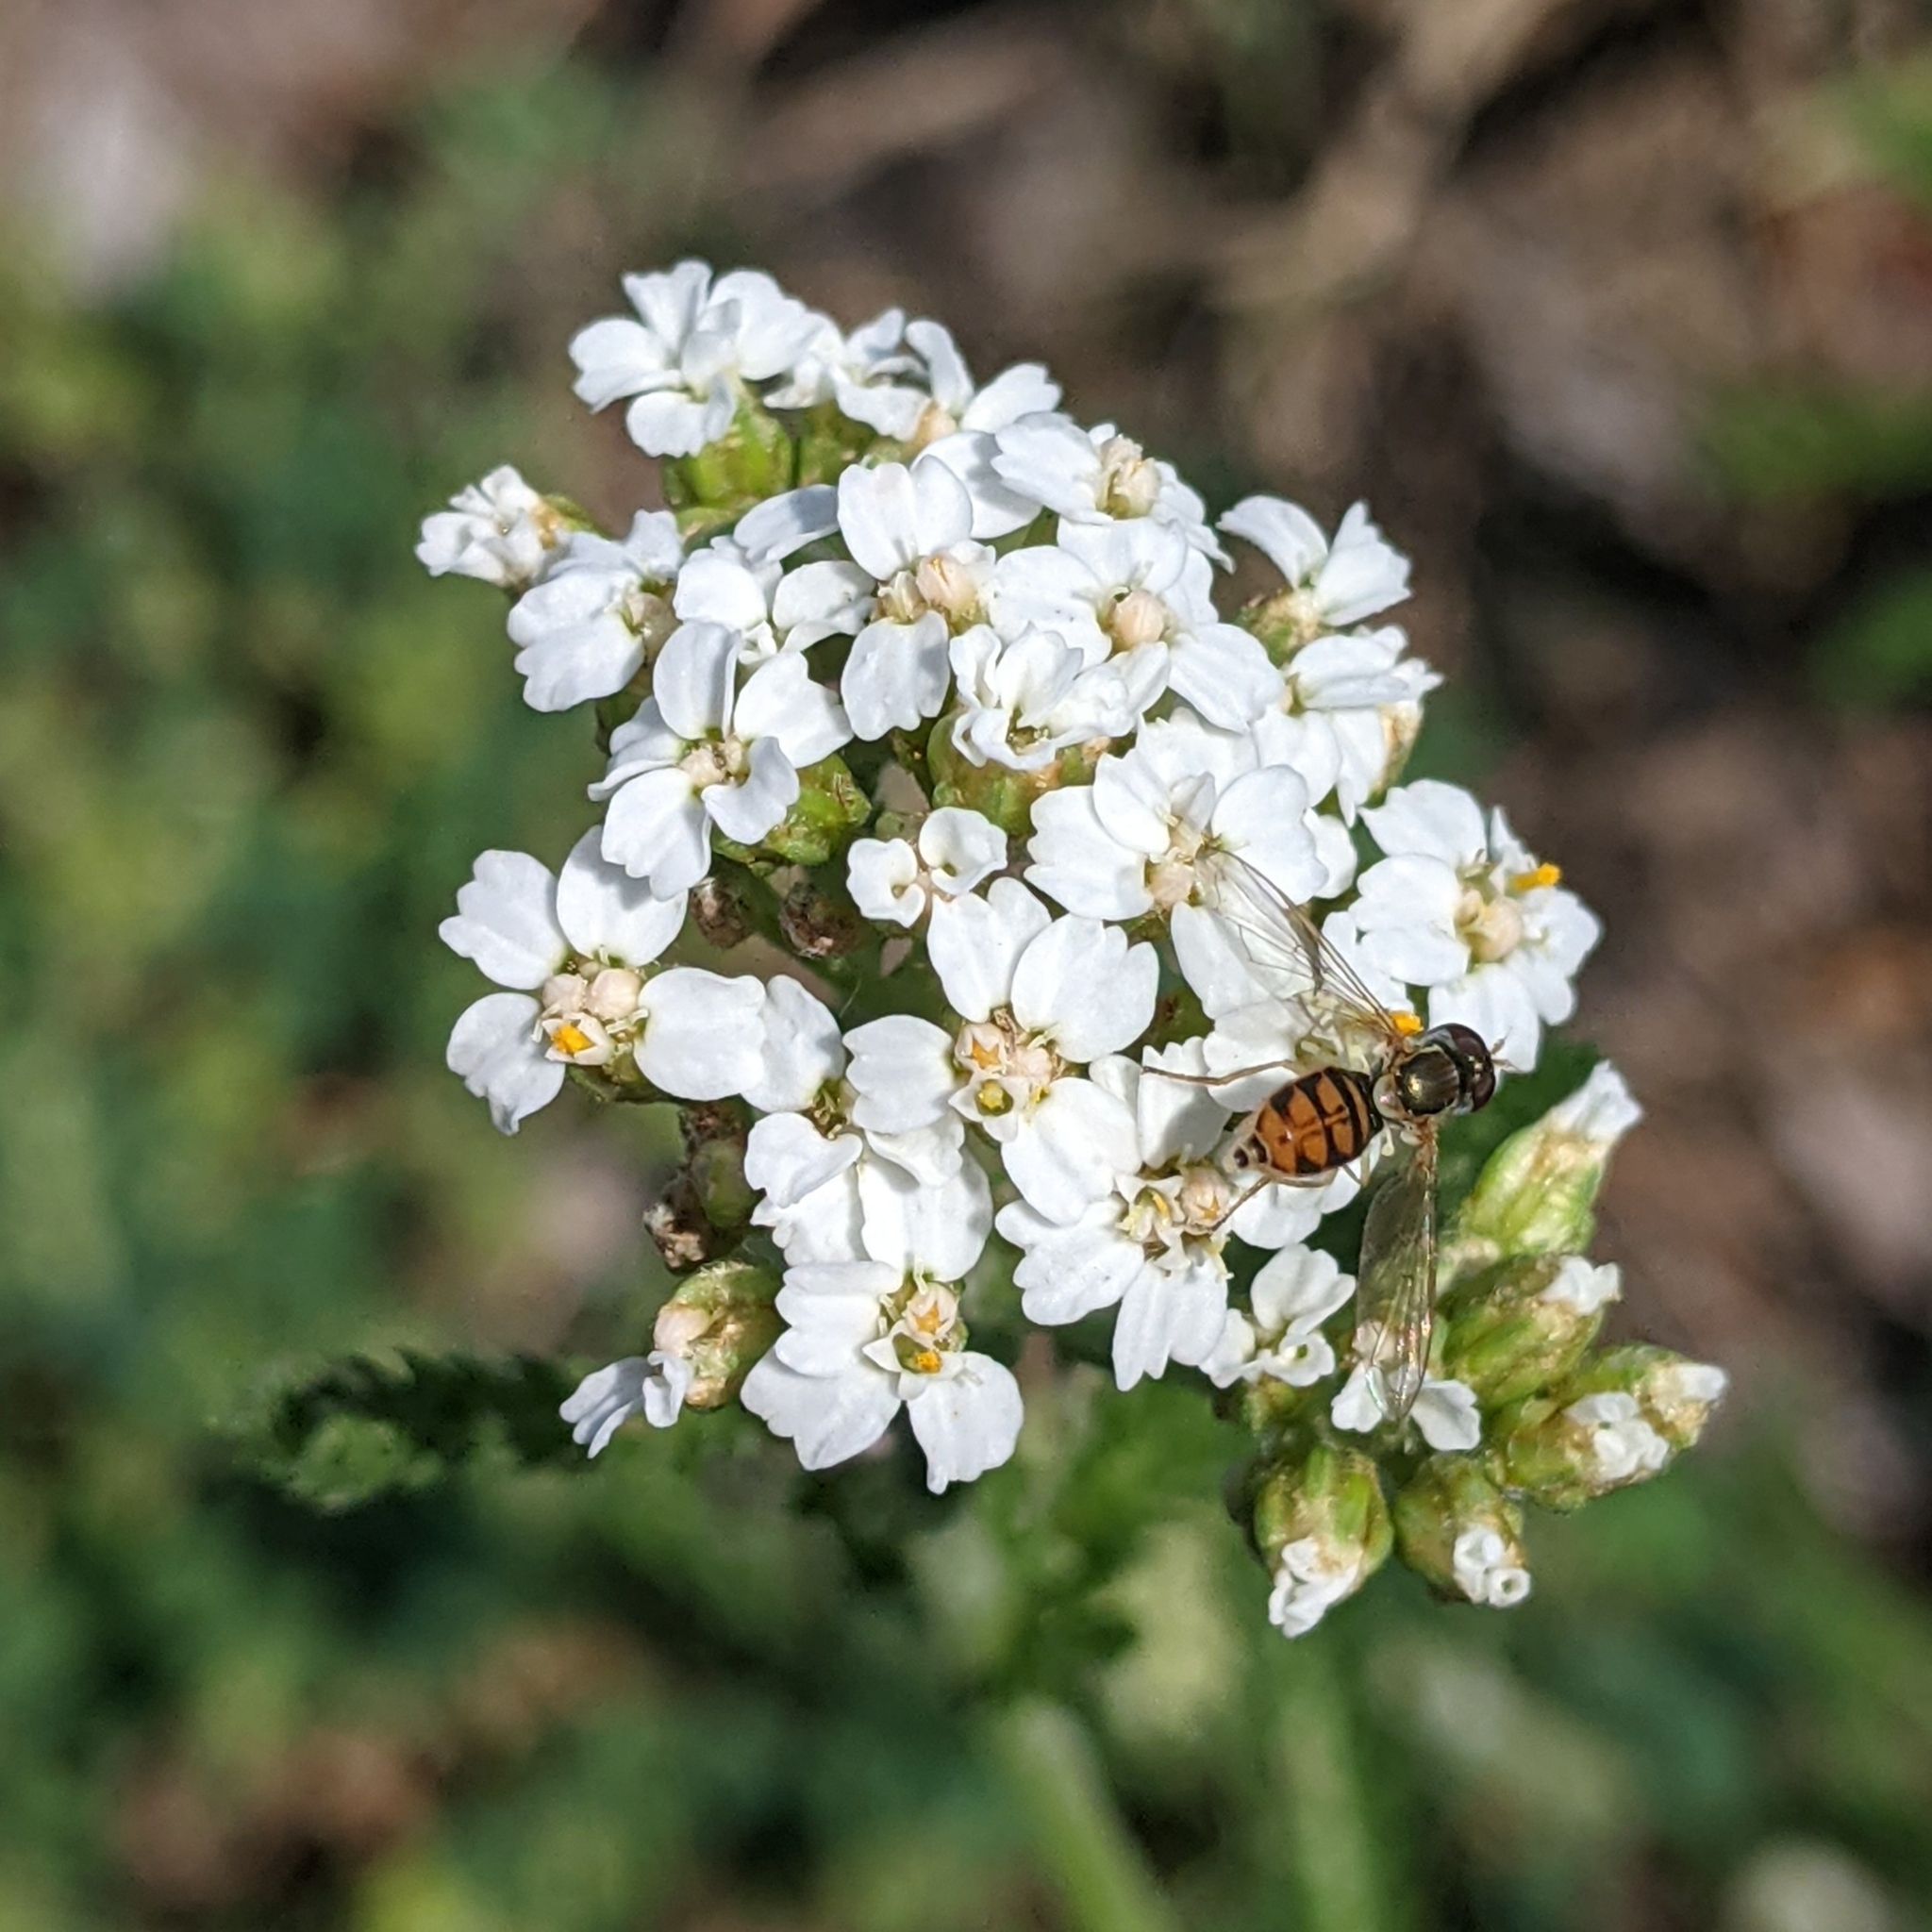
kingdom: Plantae
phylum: Tracheophyta
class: Magnoliopsida
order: Asterales
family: Asteraceae
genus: Achillea
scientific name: Achillea millefolium
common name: Yarrow
